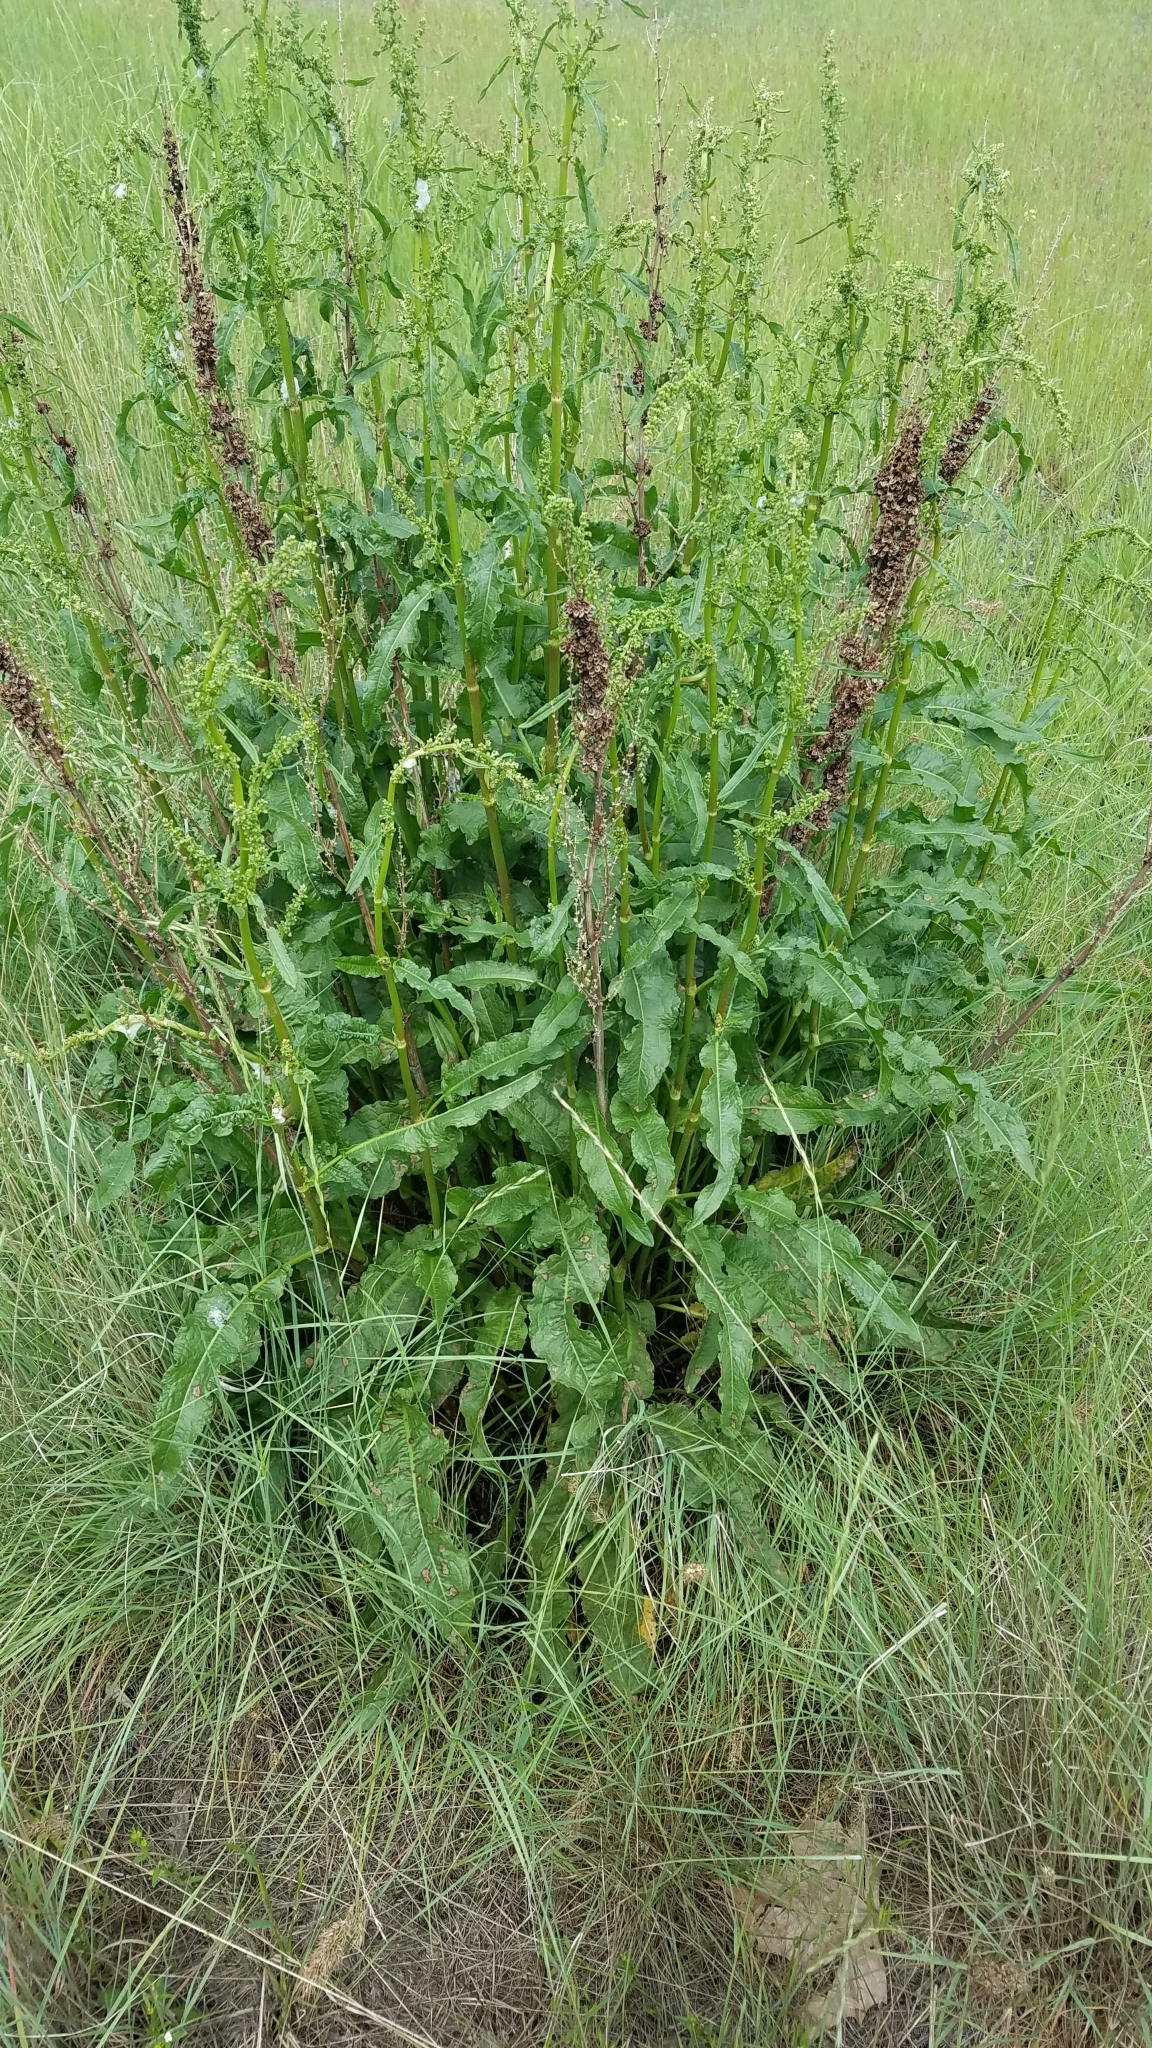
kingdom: Plantae
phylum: Tracheophyta
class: Magnoliopsida
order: Caryophyllales
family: Polygonaceae
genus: Rumex
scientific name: Rumex crispus
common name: Curled dock
